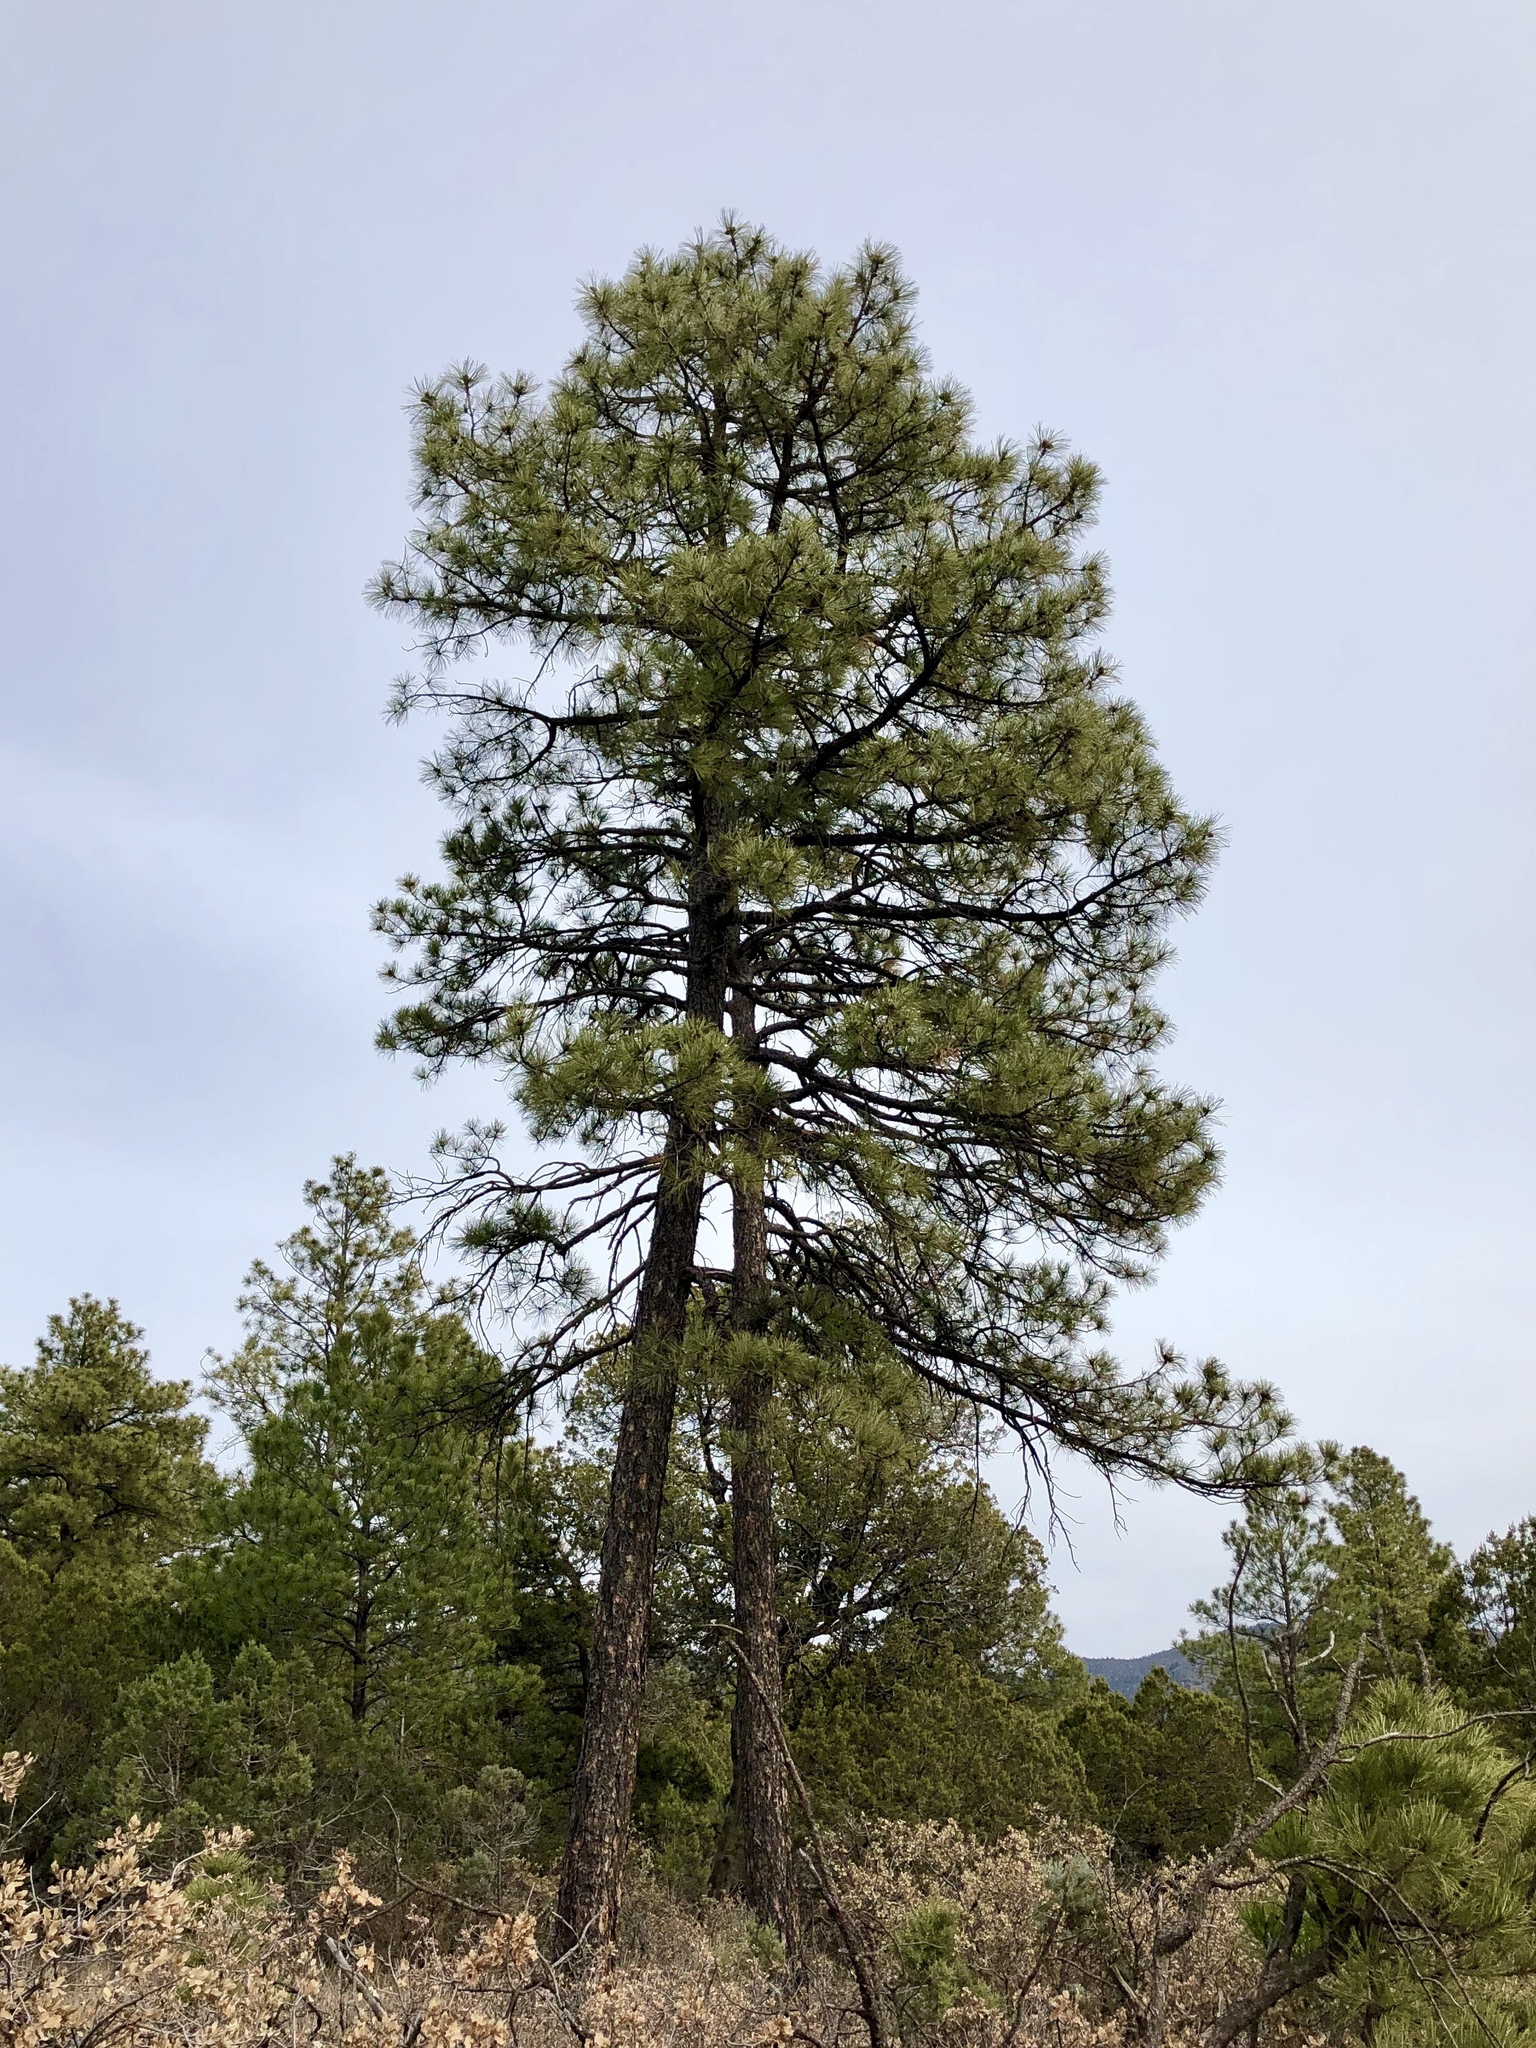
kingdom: Plantae
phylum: Tracheophyta
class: Pinopsida
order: Pinales
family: Pinaceae
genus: Pinus
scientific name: Pinus ponderosa
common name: Western yellow-pine
